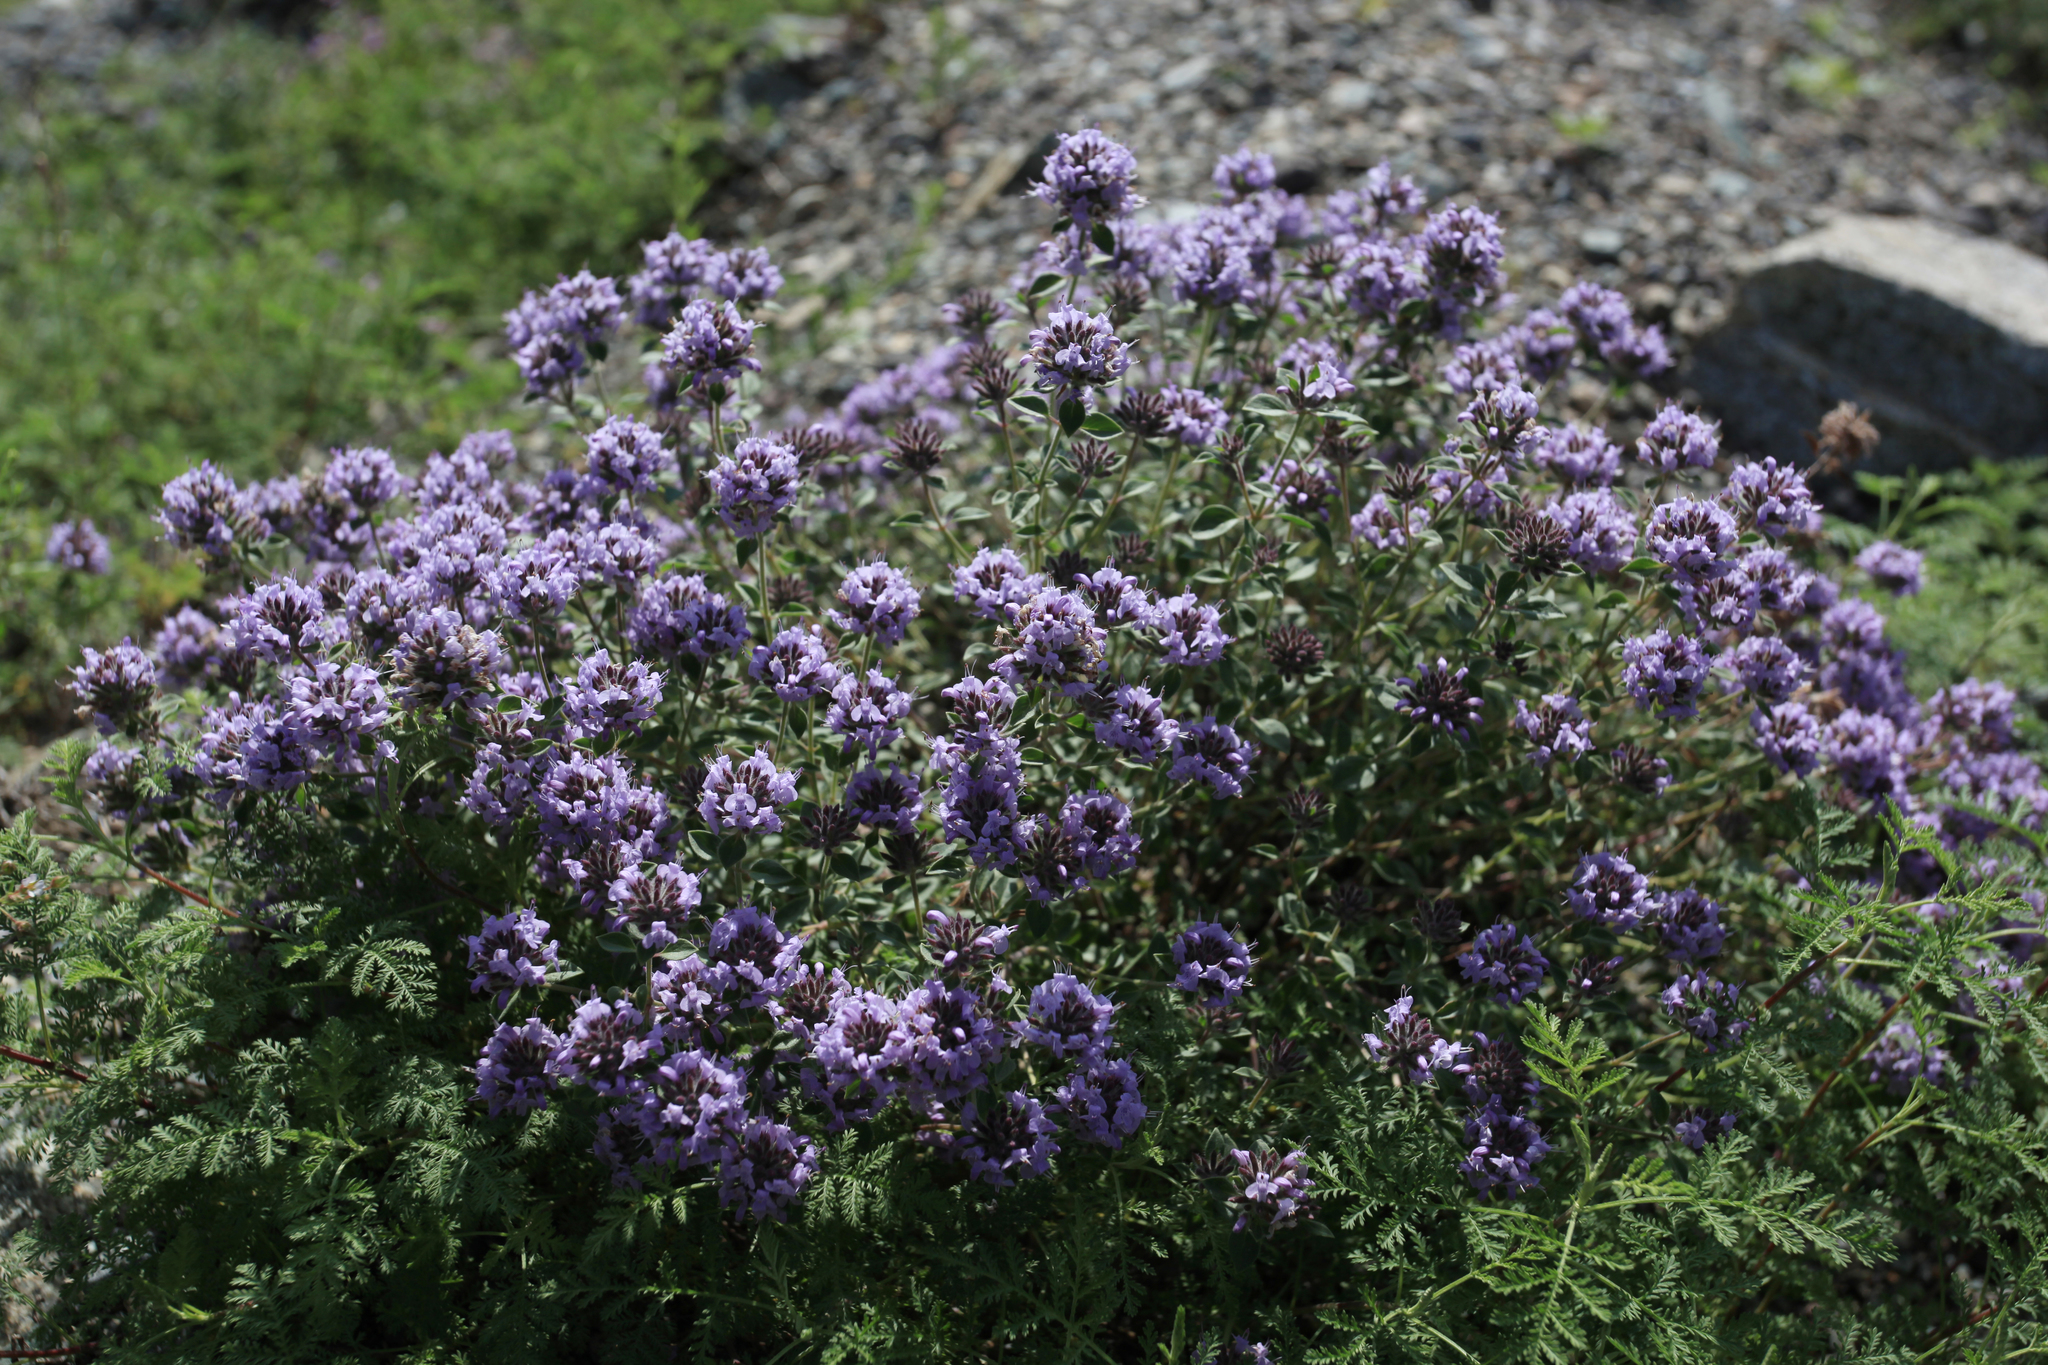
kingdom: Plantae
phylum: Tracheophyta
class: Magnoliopsida
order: Lamiales
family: Lamiaceae
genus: Ziziphora
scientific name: Ziziphora clinopodioides
